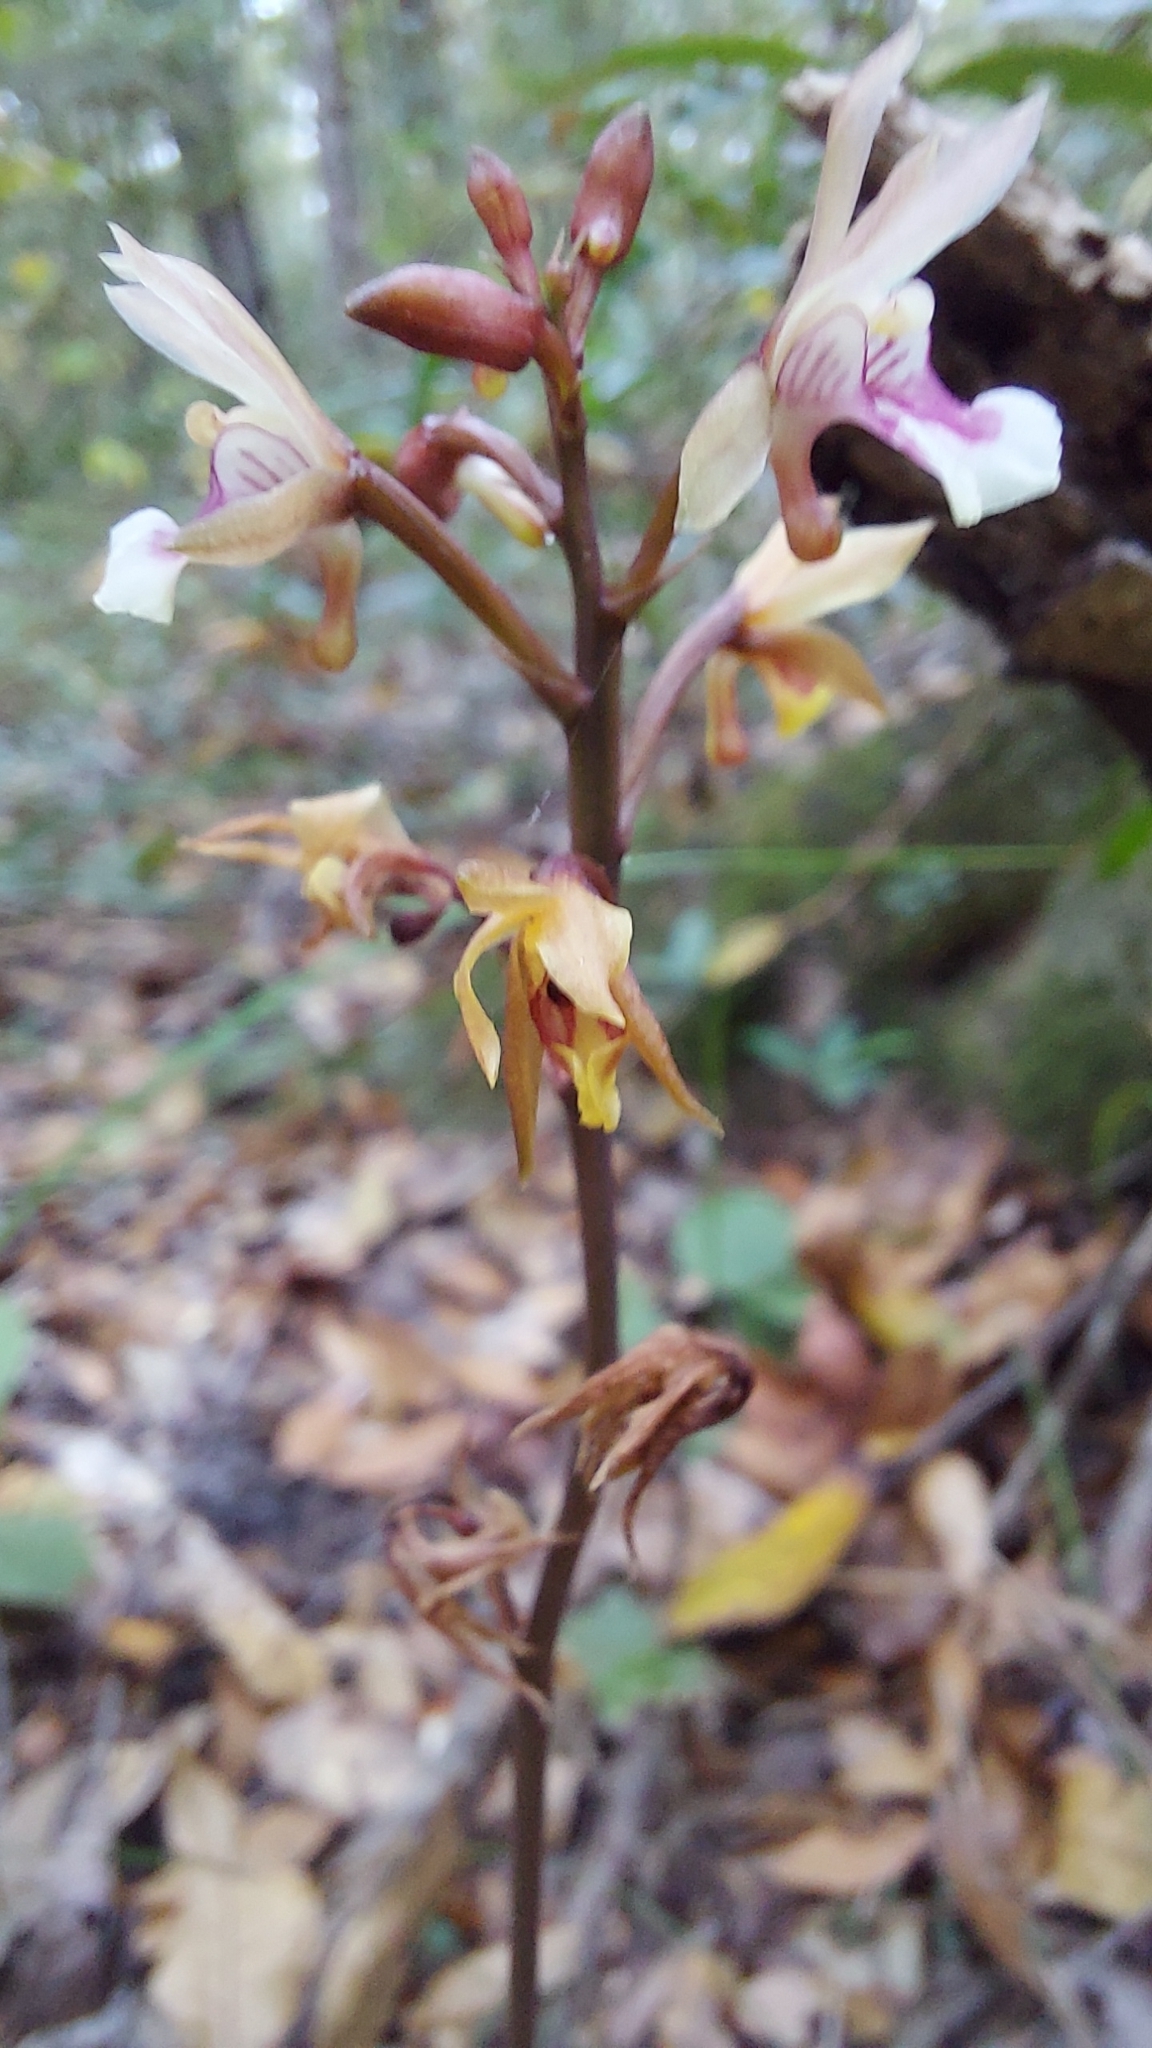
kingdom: Plantae
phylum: Tracheophyta
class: Liliopsida
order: Asparagales
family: Orchidaceae
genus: Eulophia
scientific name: Eulophia maculata
